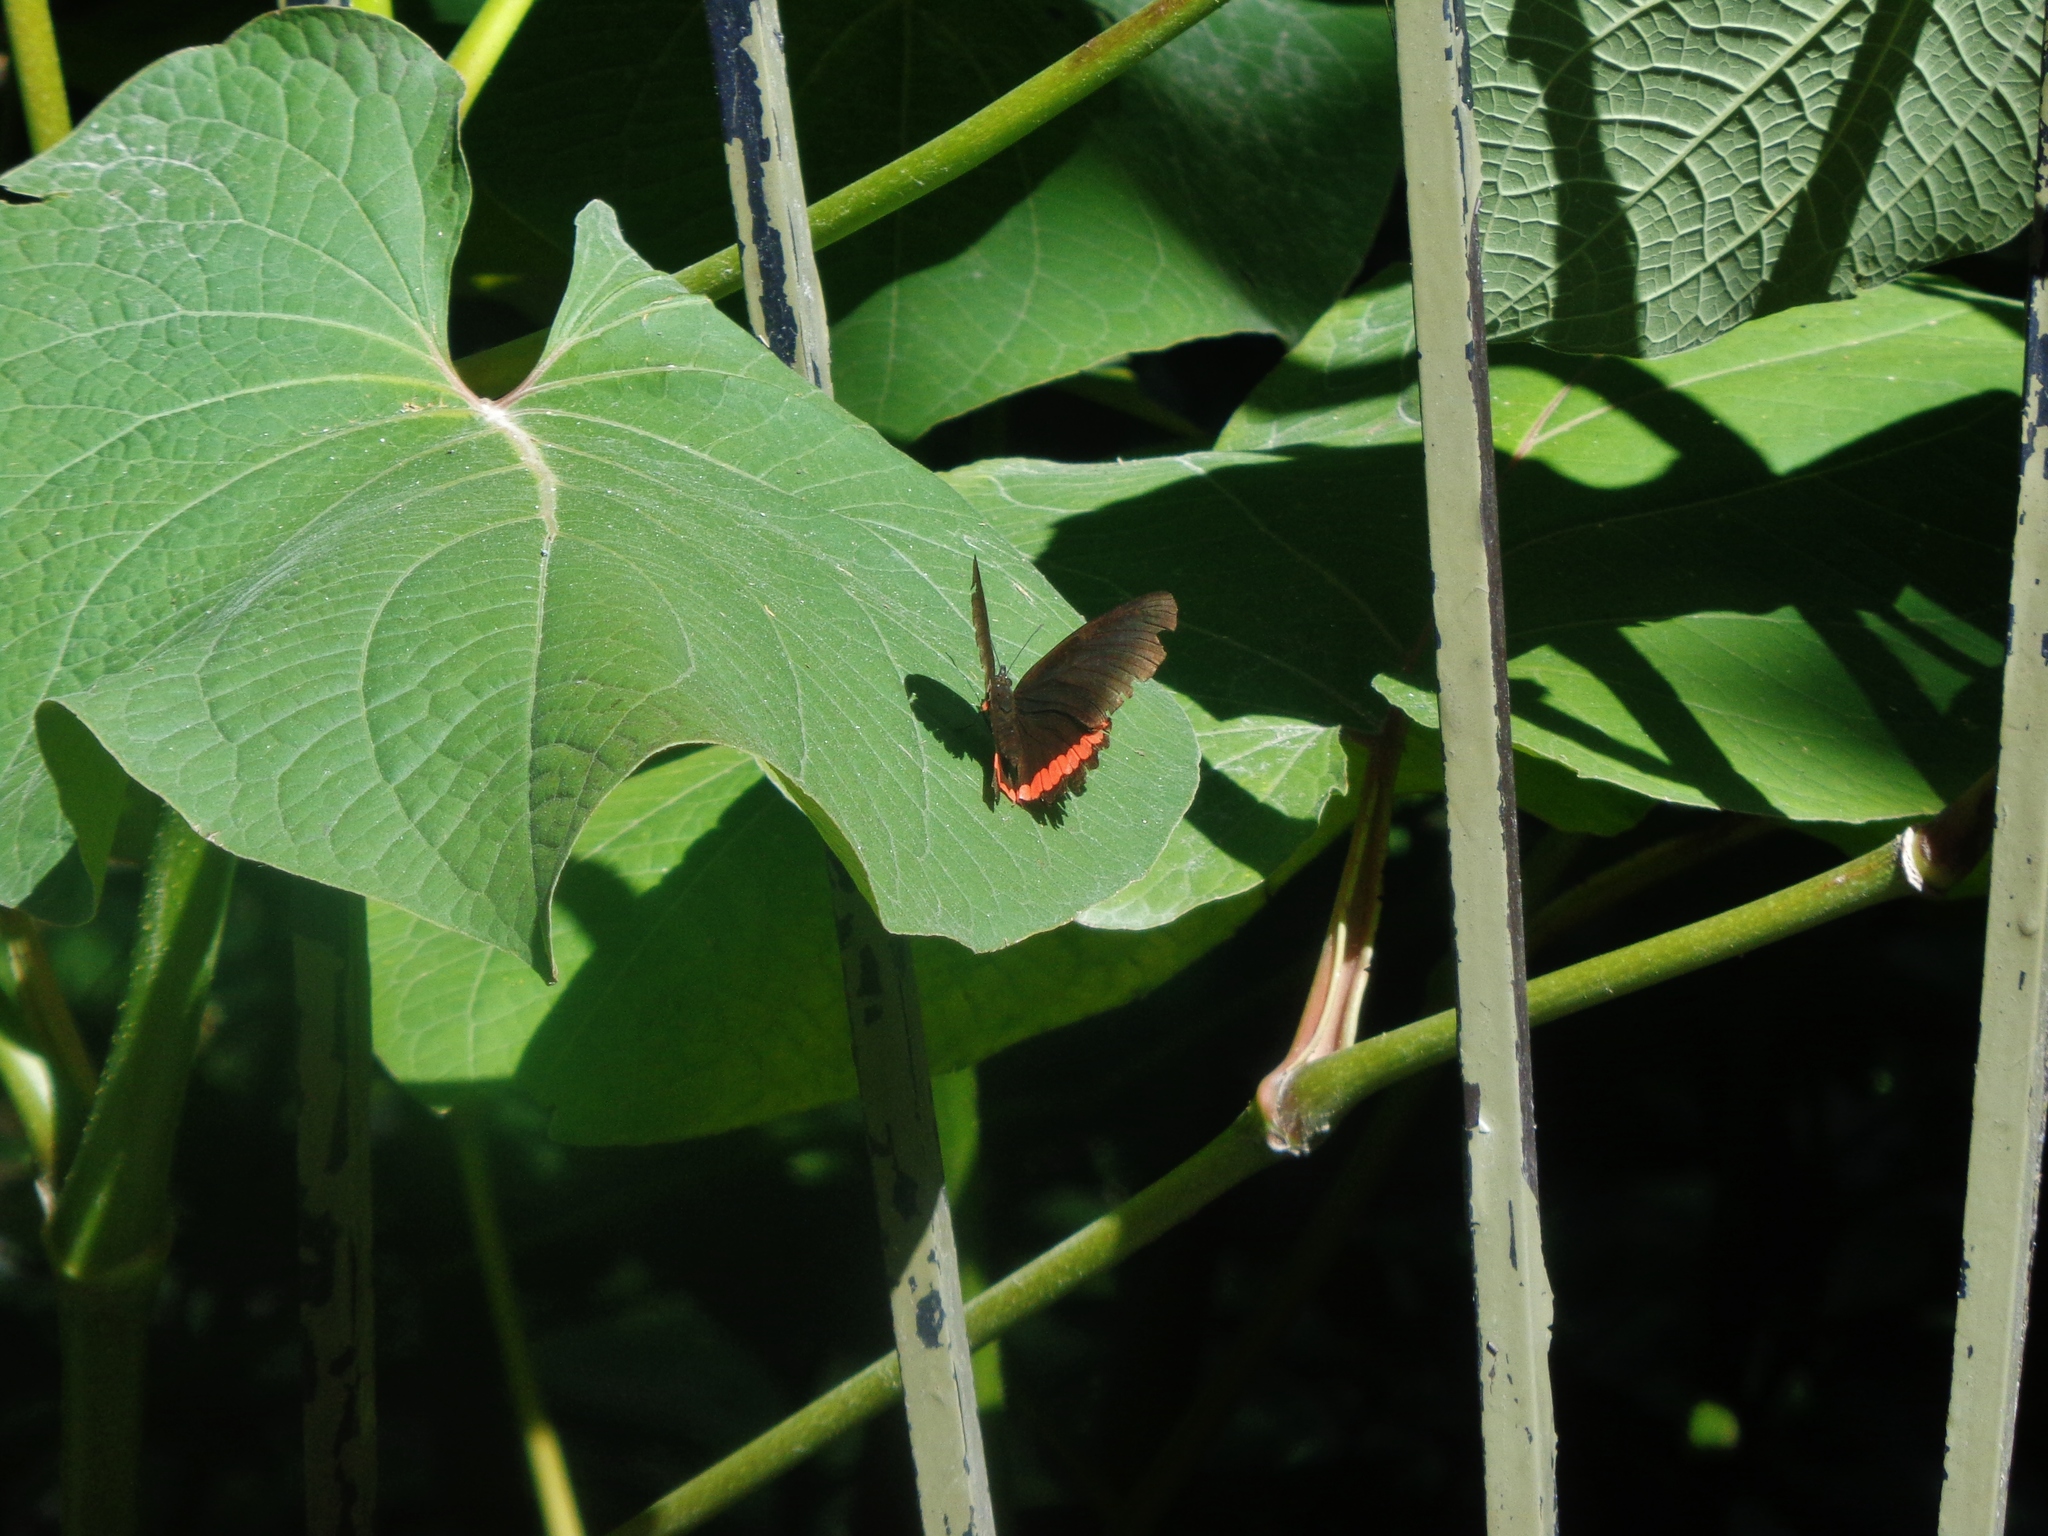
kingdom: Animalia
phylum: Arthropoda
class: Insecta
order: Lepidoptera
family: Nymphalidae
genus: Biblis
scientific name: Biblis aganisa
